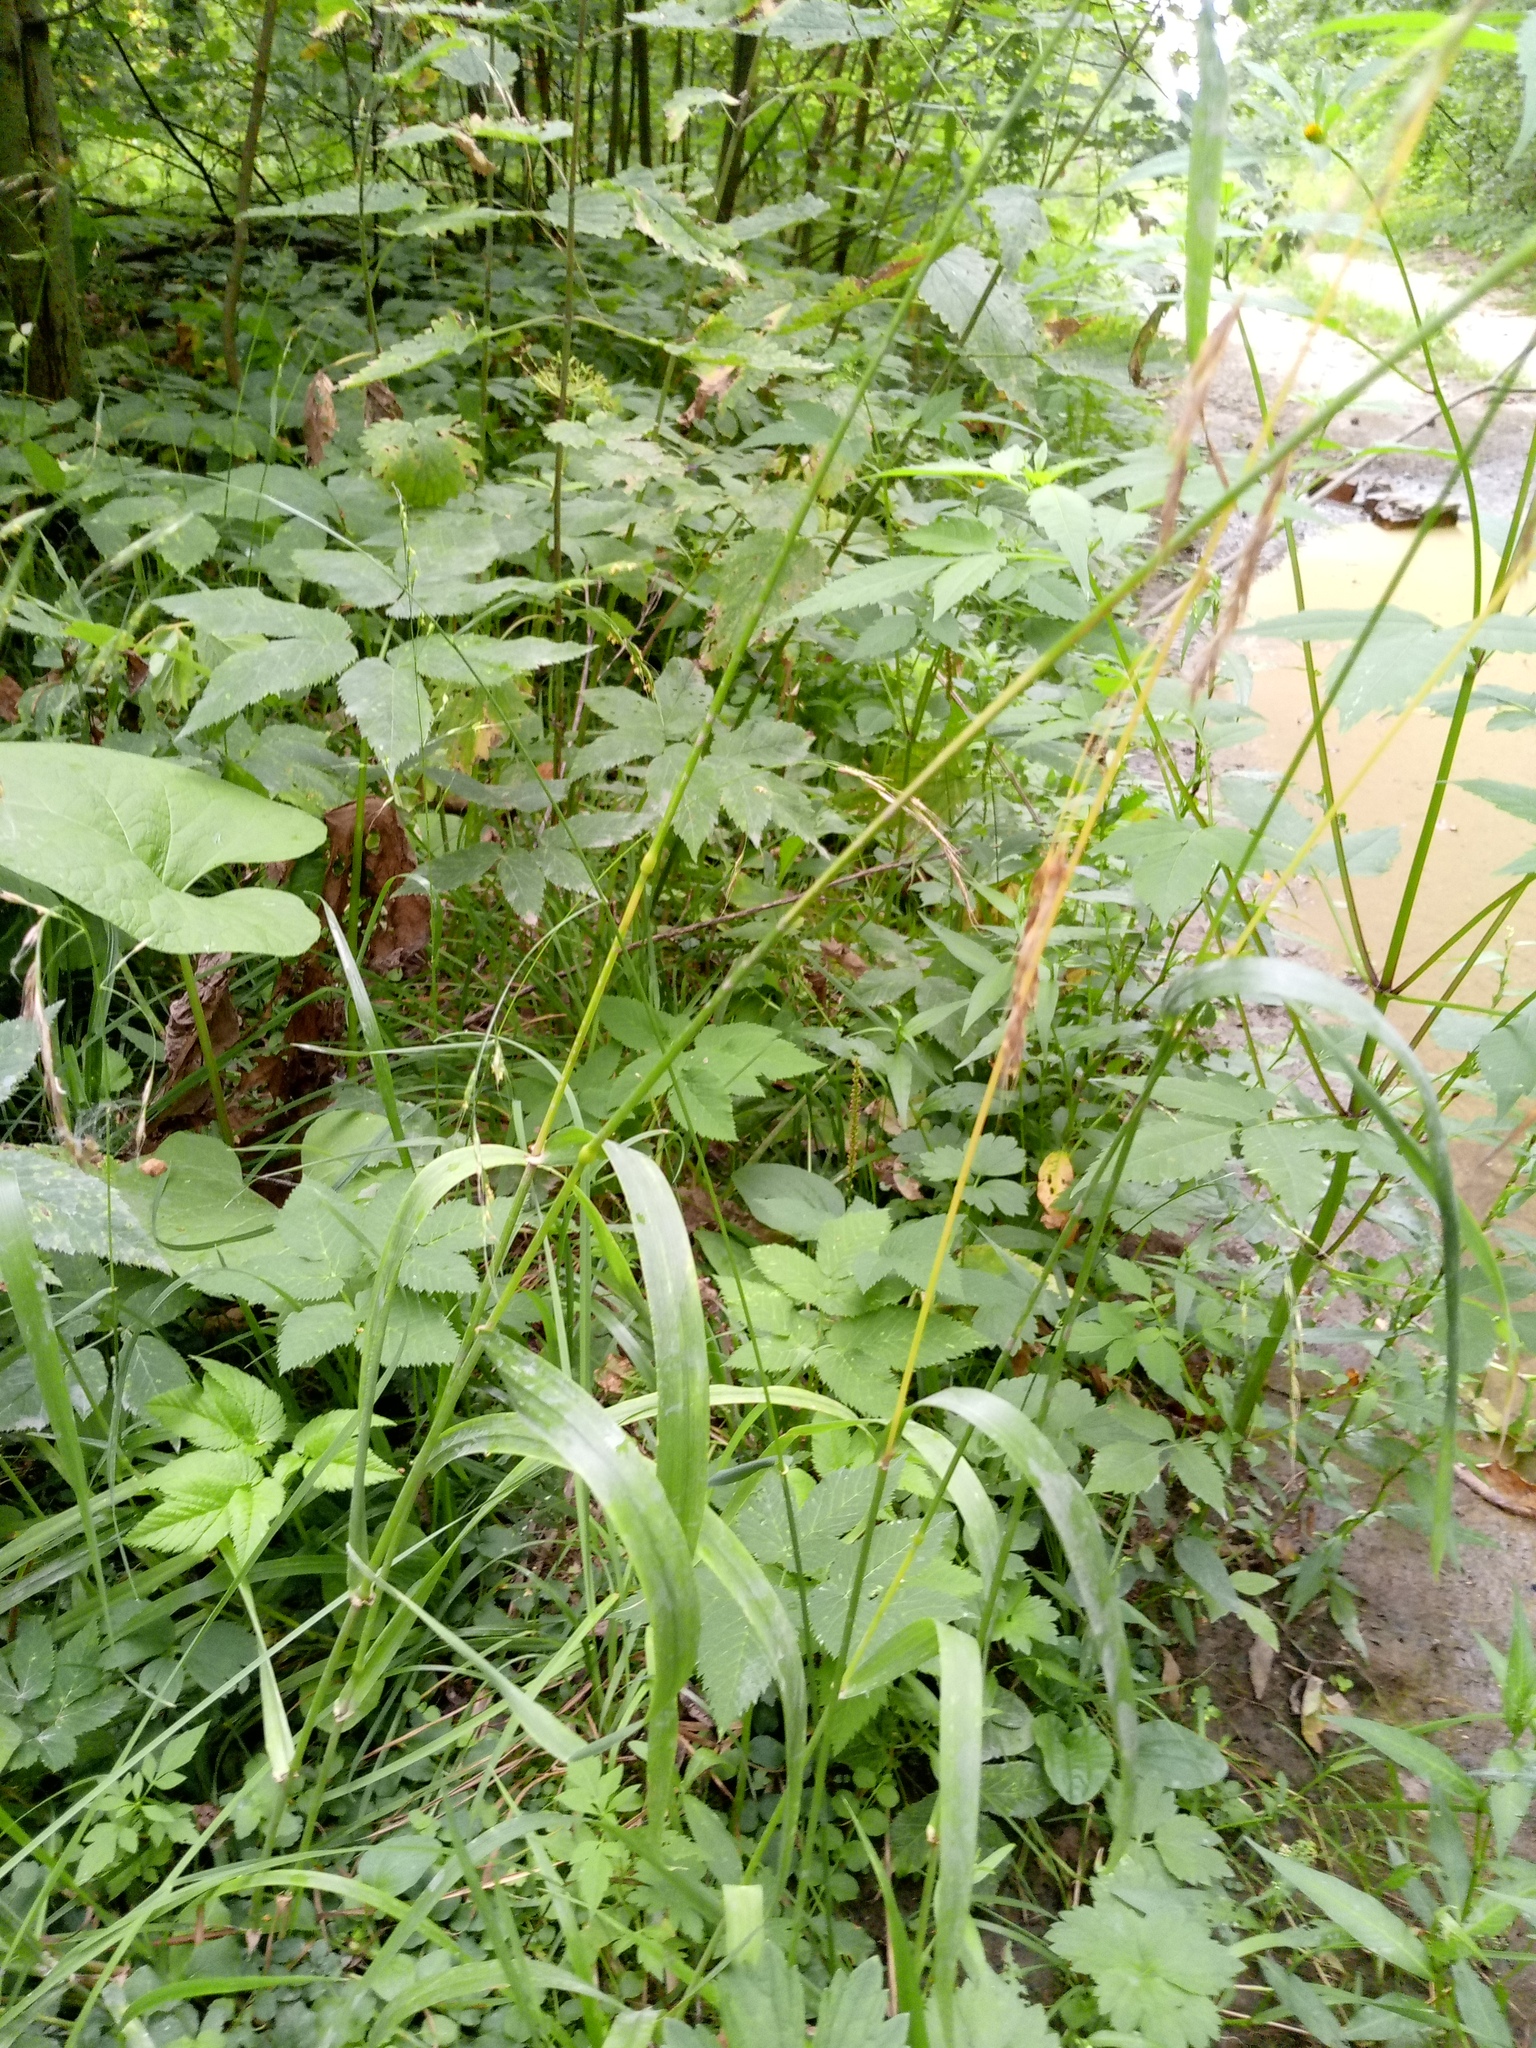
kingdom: Plantae
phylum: Tracheophyta
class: Liliopsida
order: Poales
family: Poaceae
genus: Lolium
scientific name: Lolium giganteum
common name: Giant fescue
